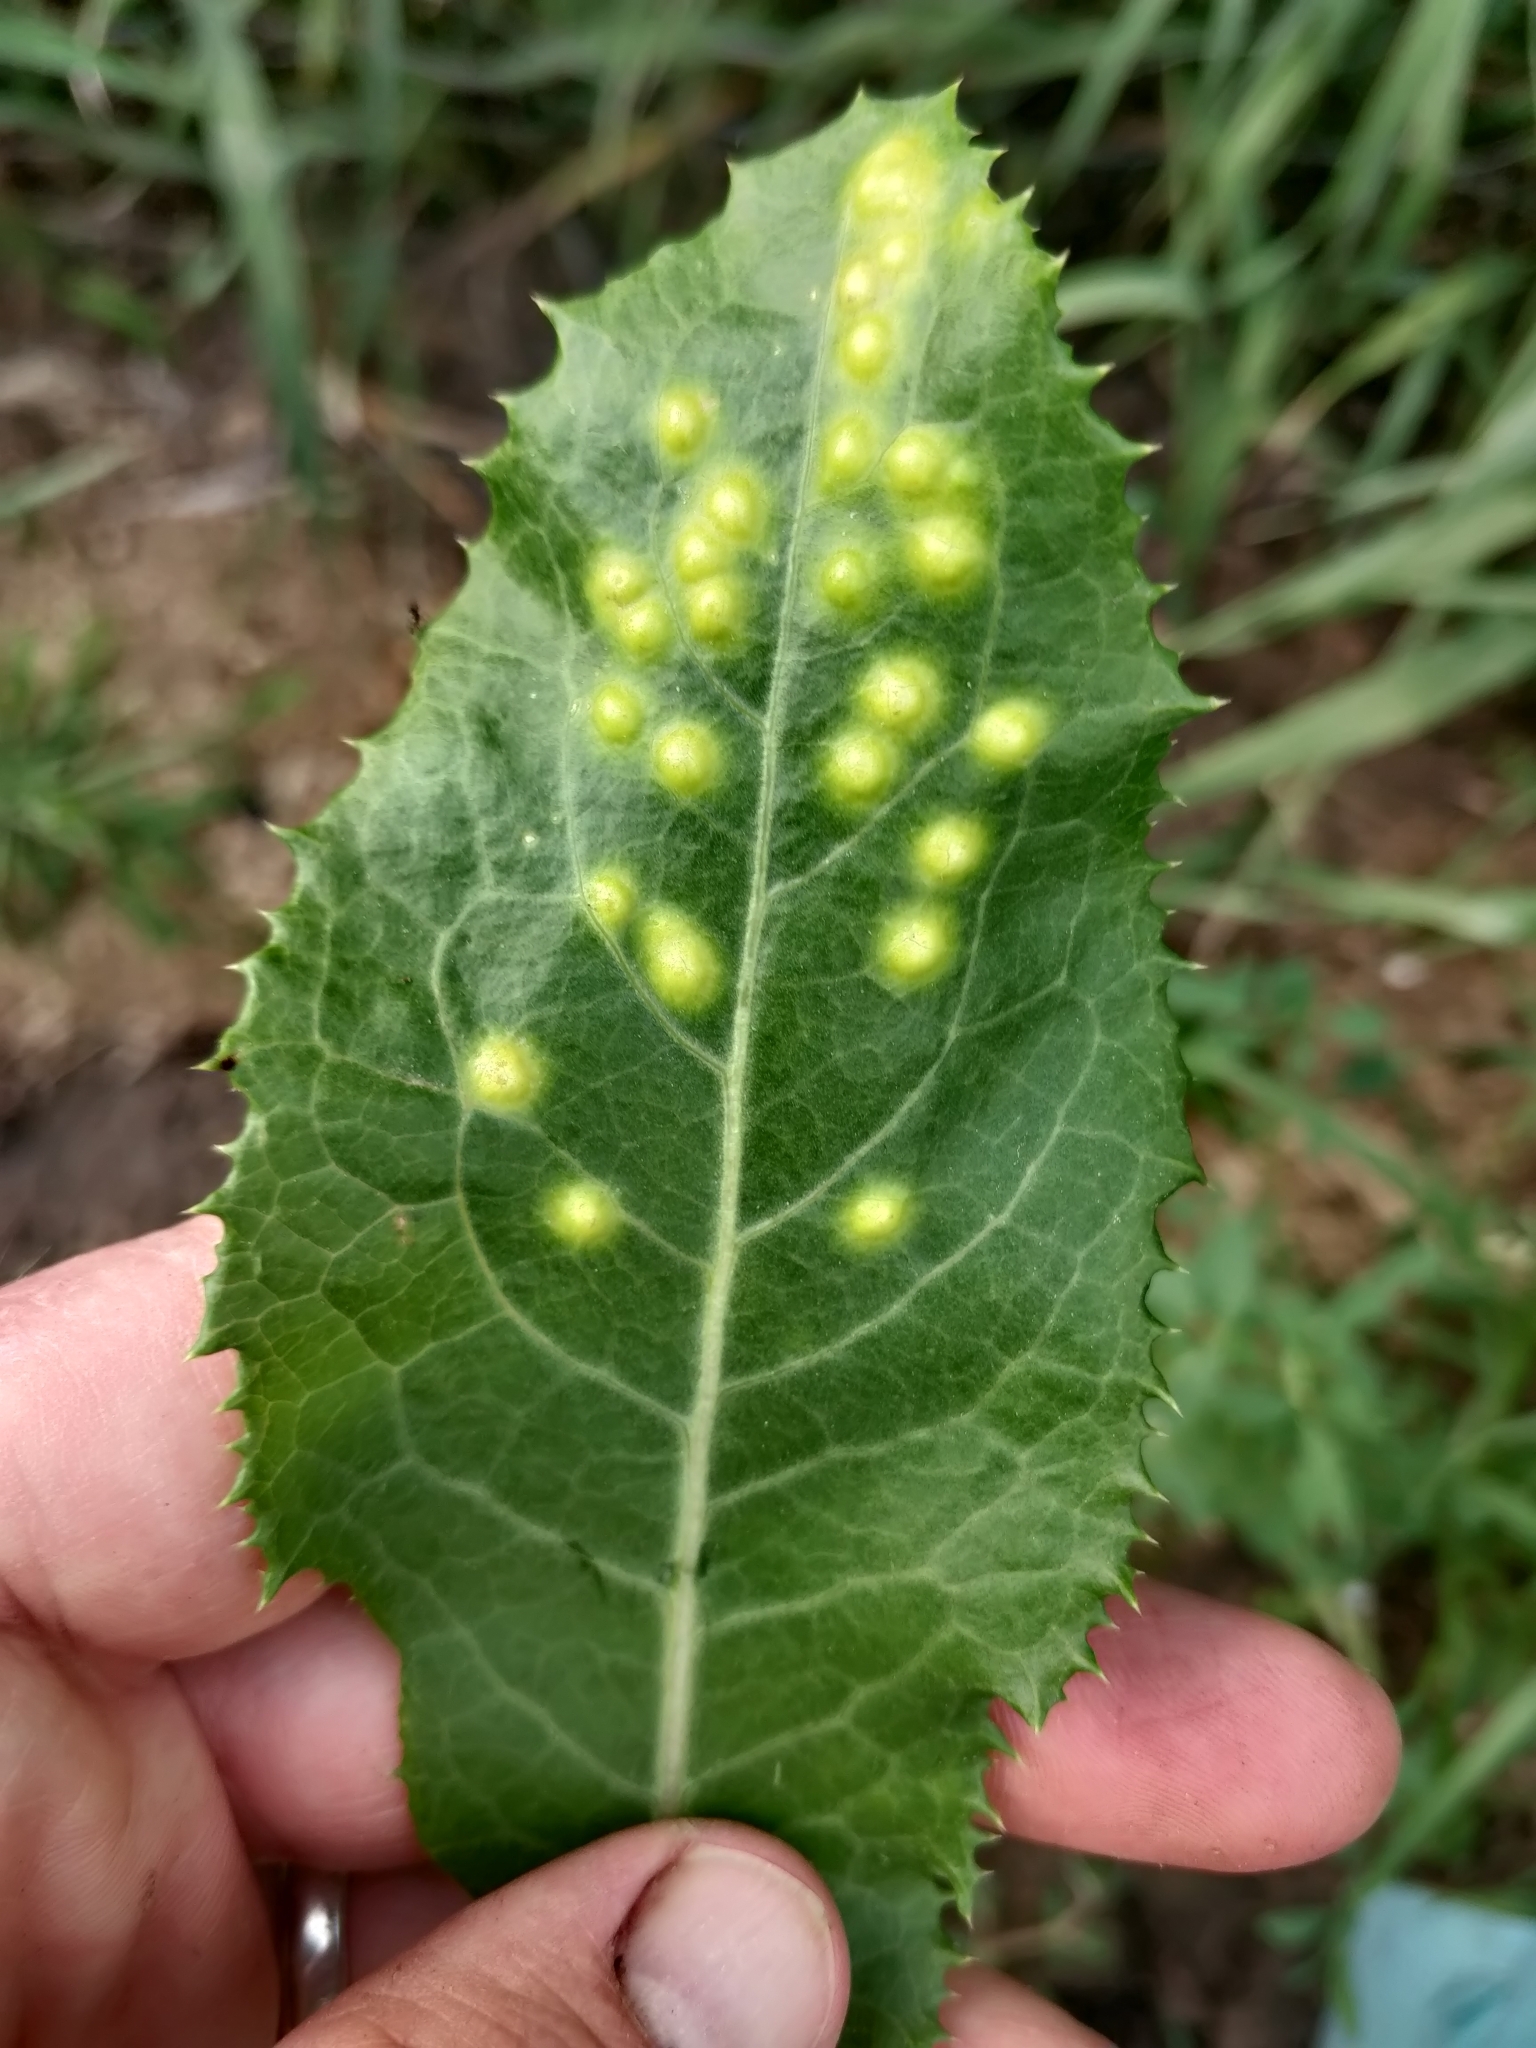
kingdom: Animalia
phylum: Arthropoda
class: Insecta
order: Diptera
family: Cecidomyiidae
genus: Cystiphora
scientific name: Cystiphora sonchi
